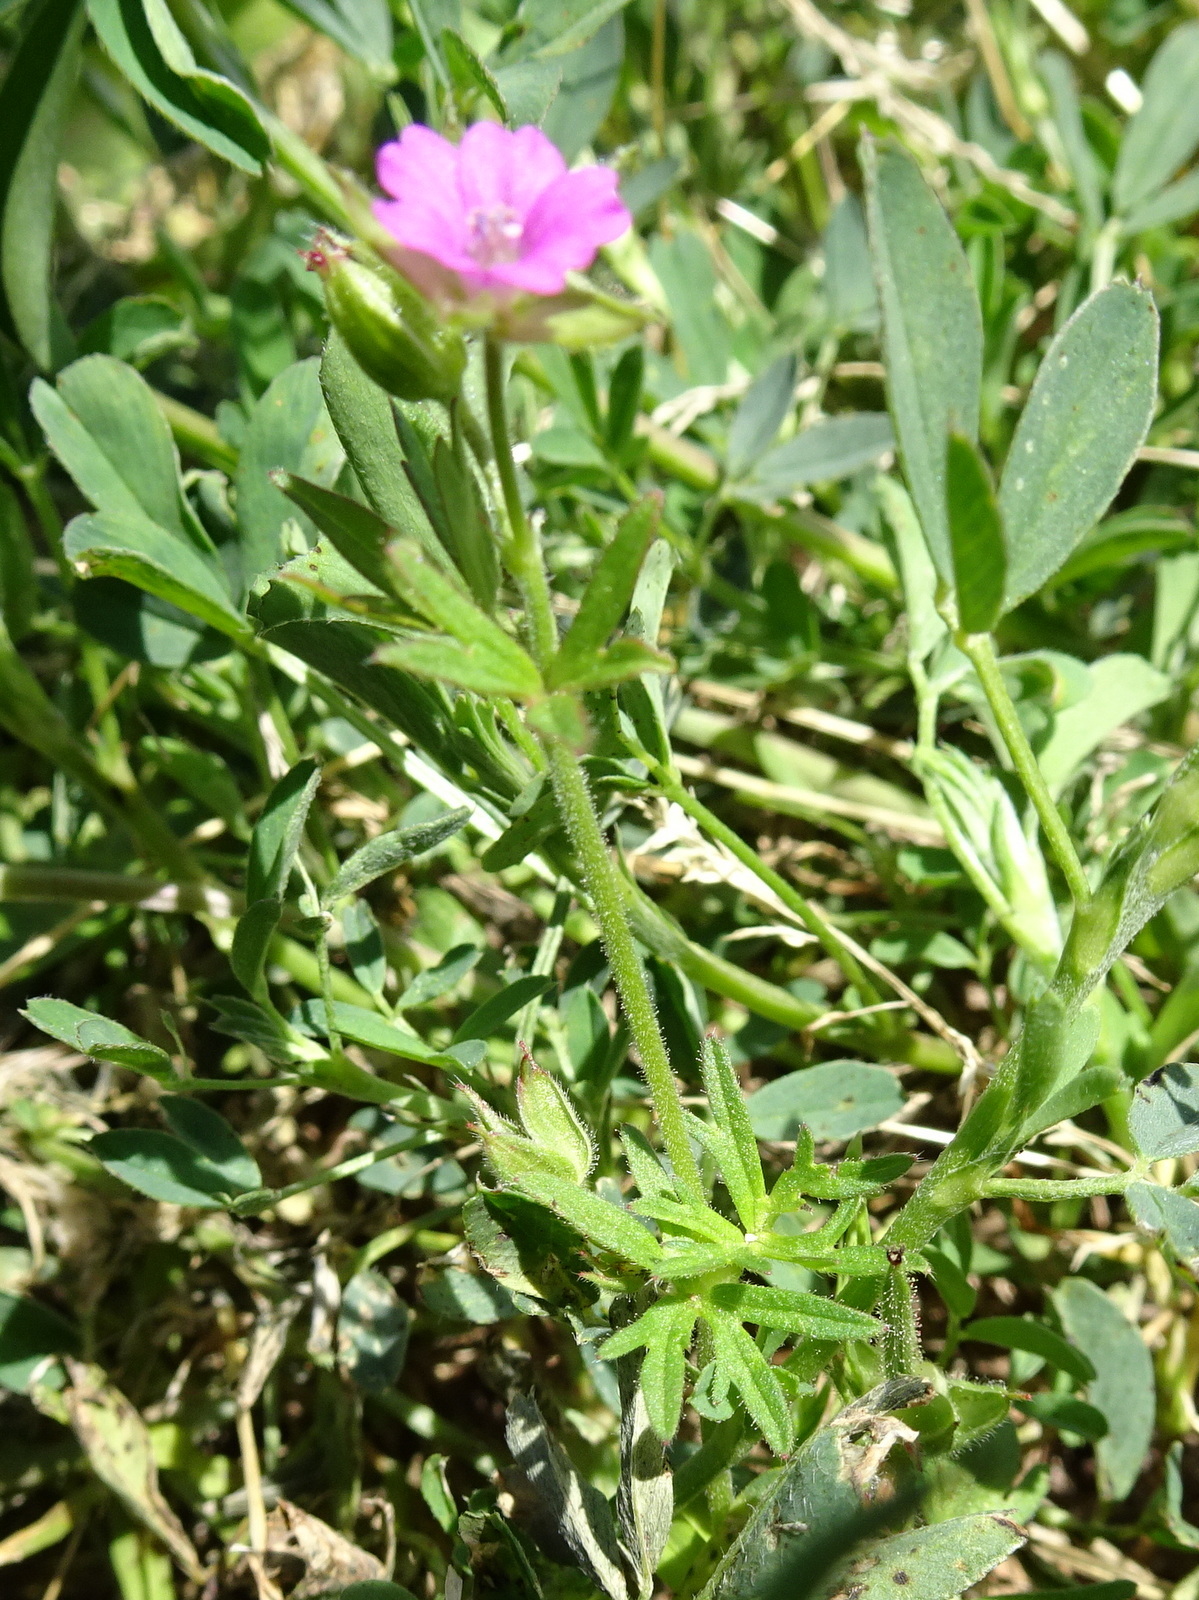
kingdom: Plantae
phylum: Tracheophyta
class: Magnoliopsida
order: Geraniales
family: Geraniaceae
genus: Geranium
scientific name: Geranium dissectum
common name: Cut-leaved crane's-bill
